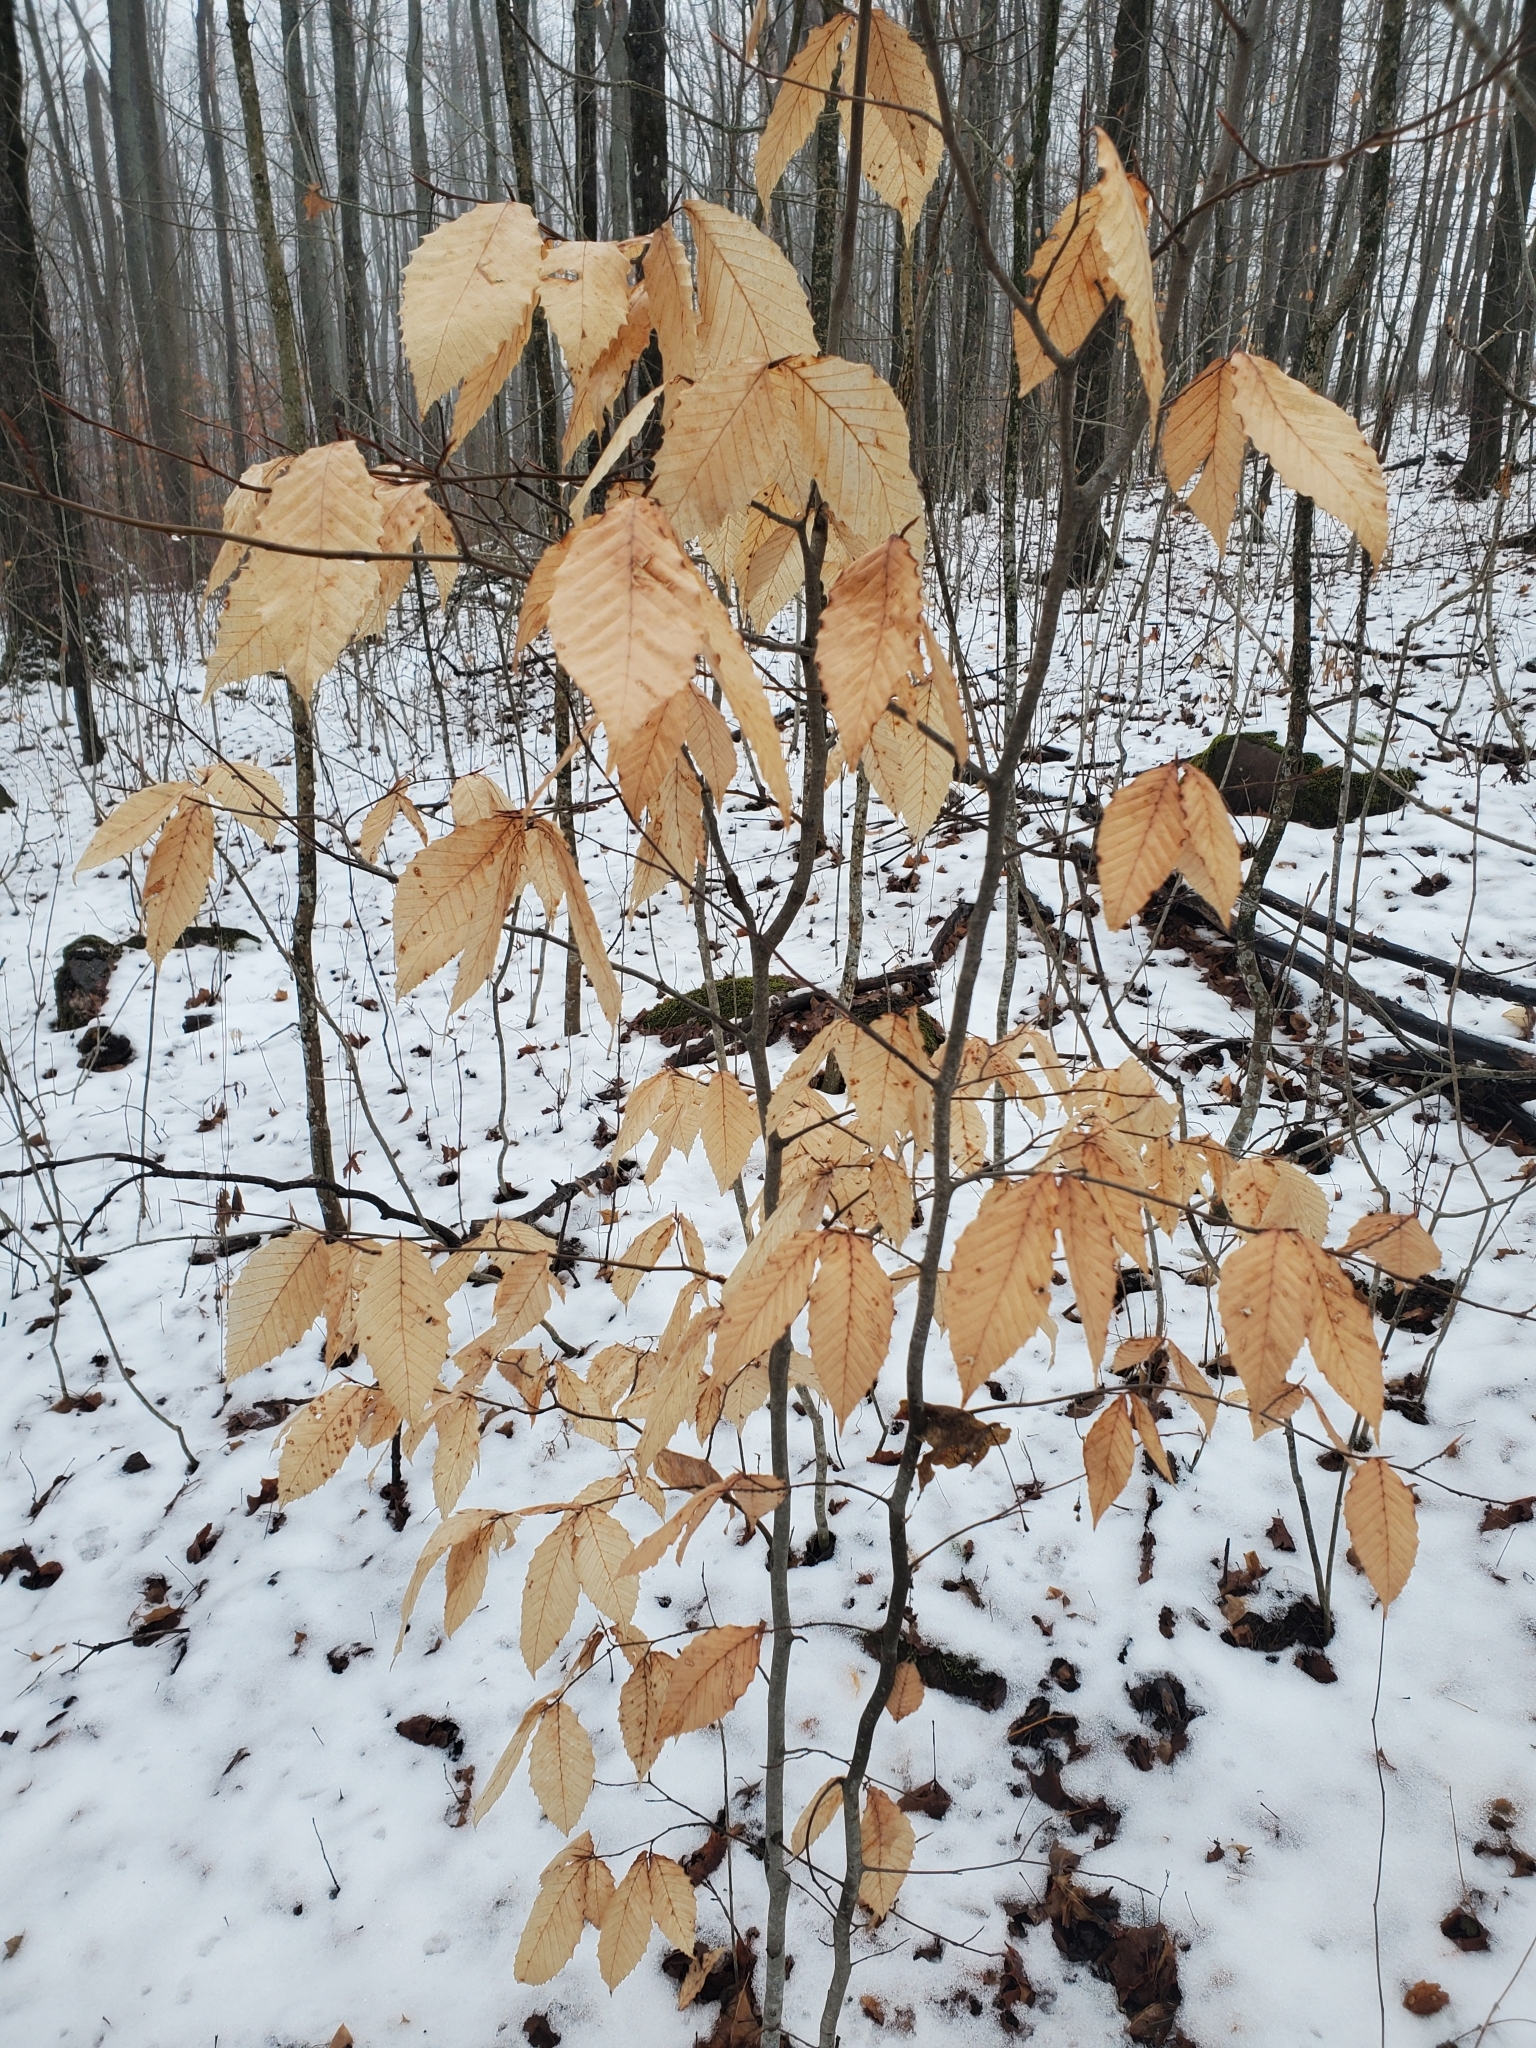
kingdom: Plantae
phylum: Tracheophyta
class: Magnoliopsida
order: Fagales
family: Fagaceae
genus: Fagus
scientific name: Fagus grandifolia
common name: American beech
